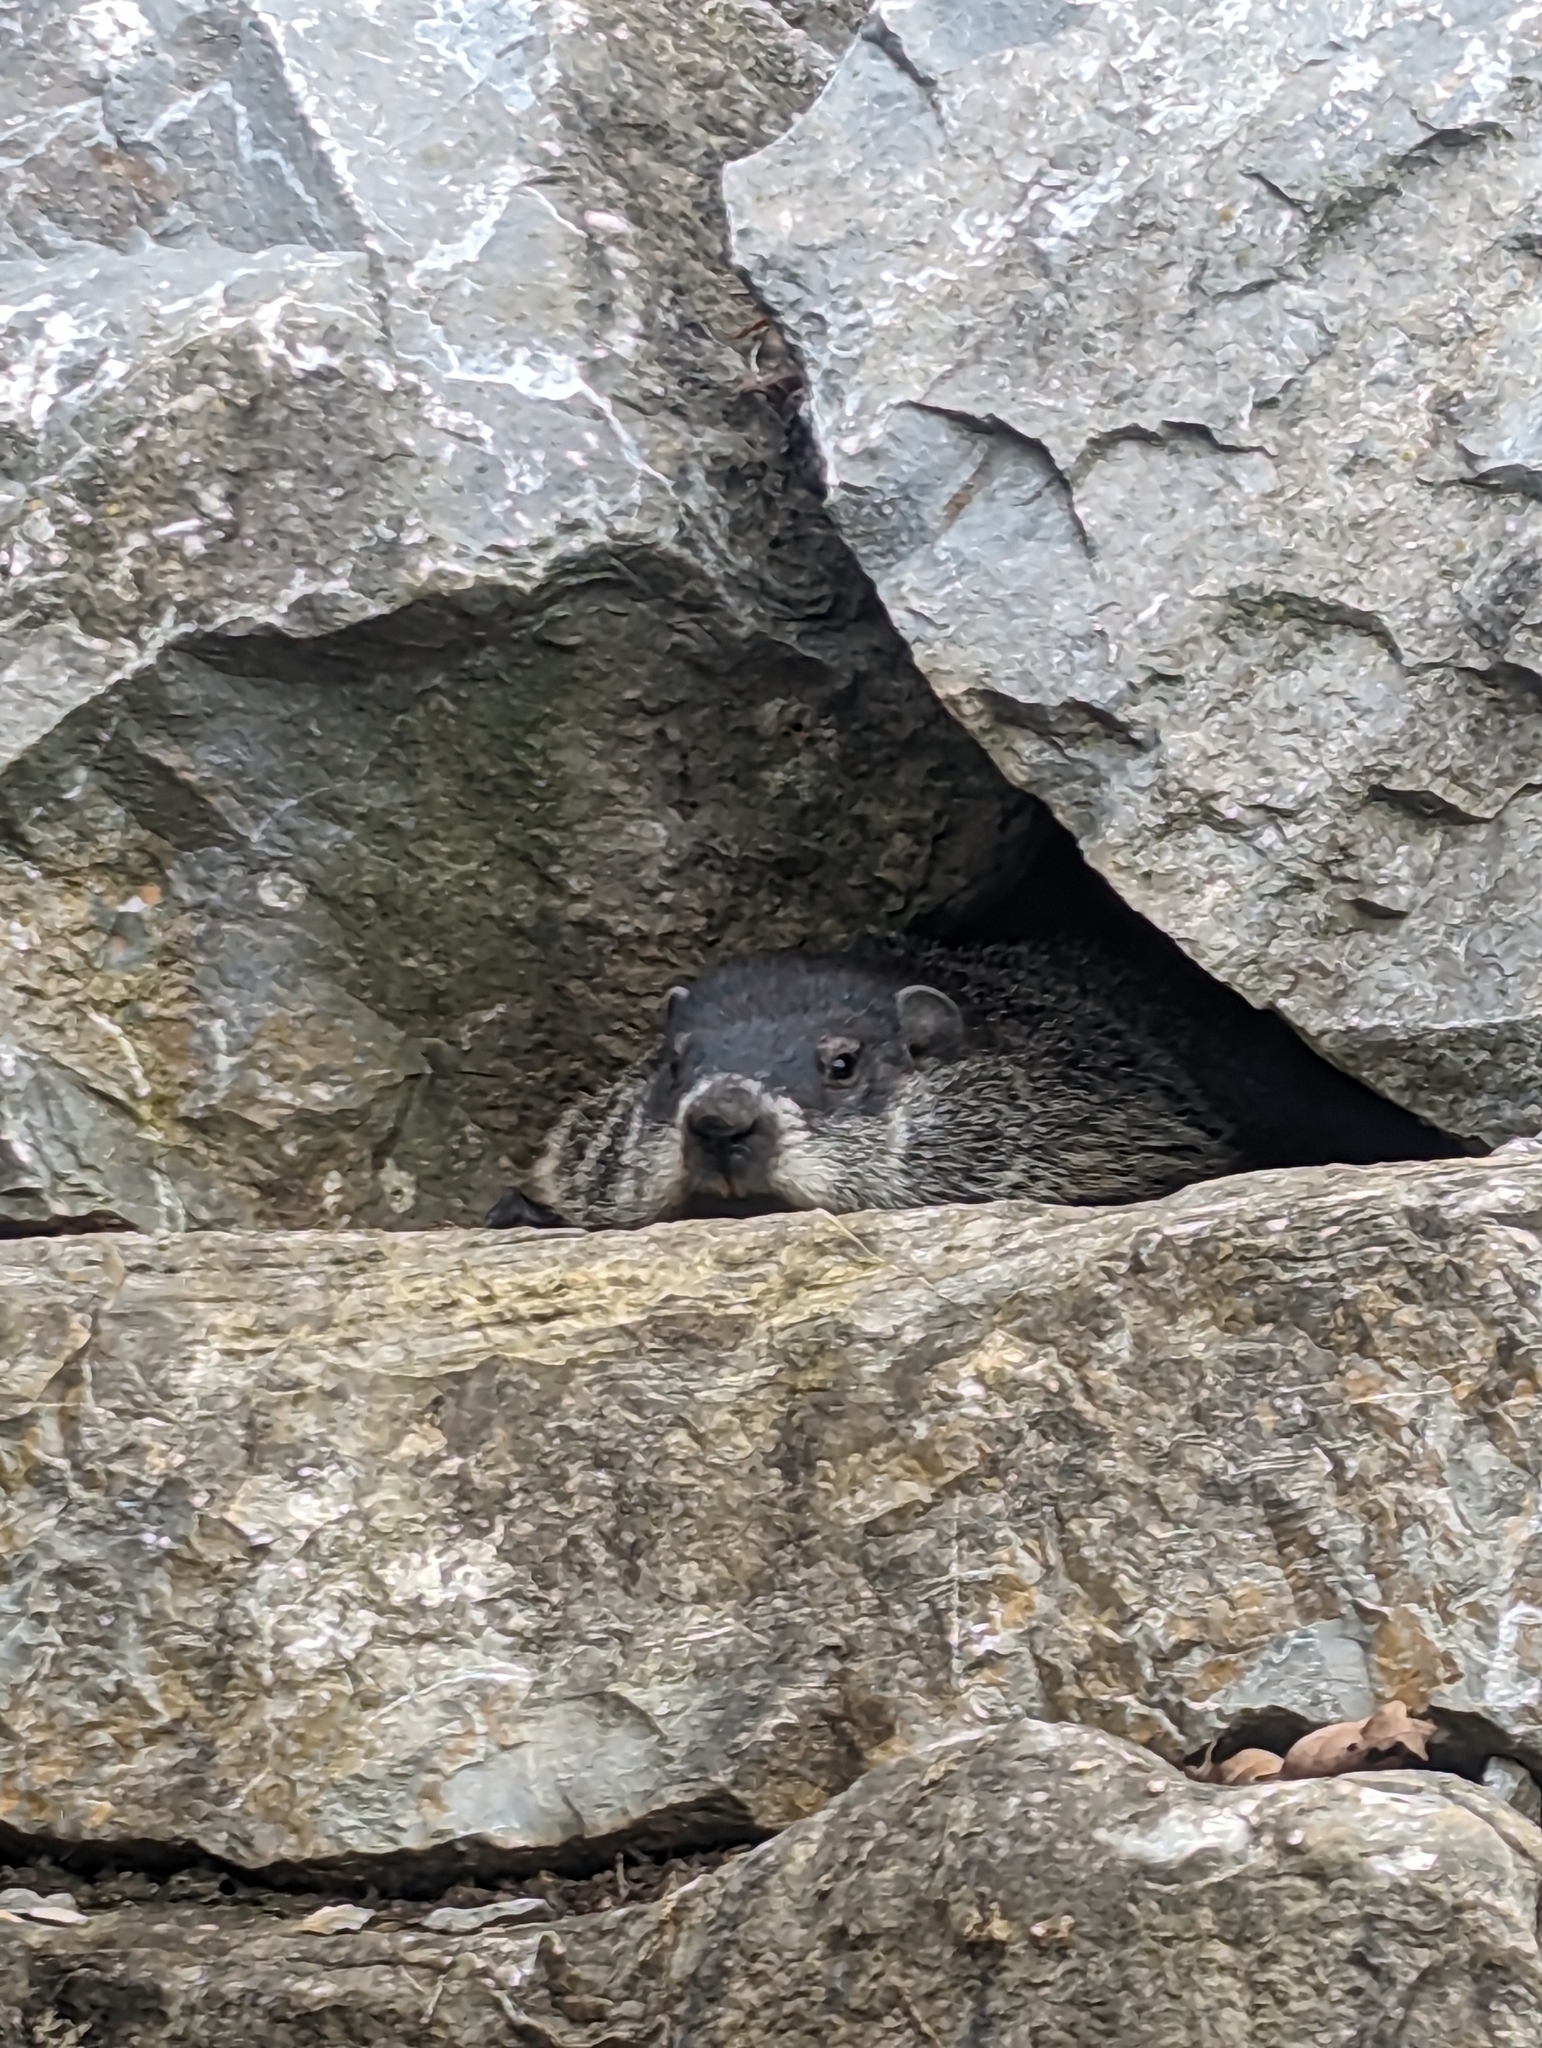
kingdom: Animalia
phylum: Chordata
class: Mammalia
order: Rodentia
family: Sciuridae
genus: Marmota
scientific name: Marmota monax
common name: Groundhog
